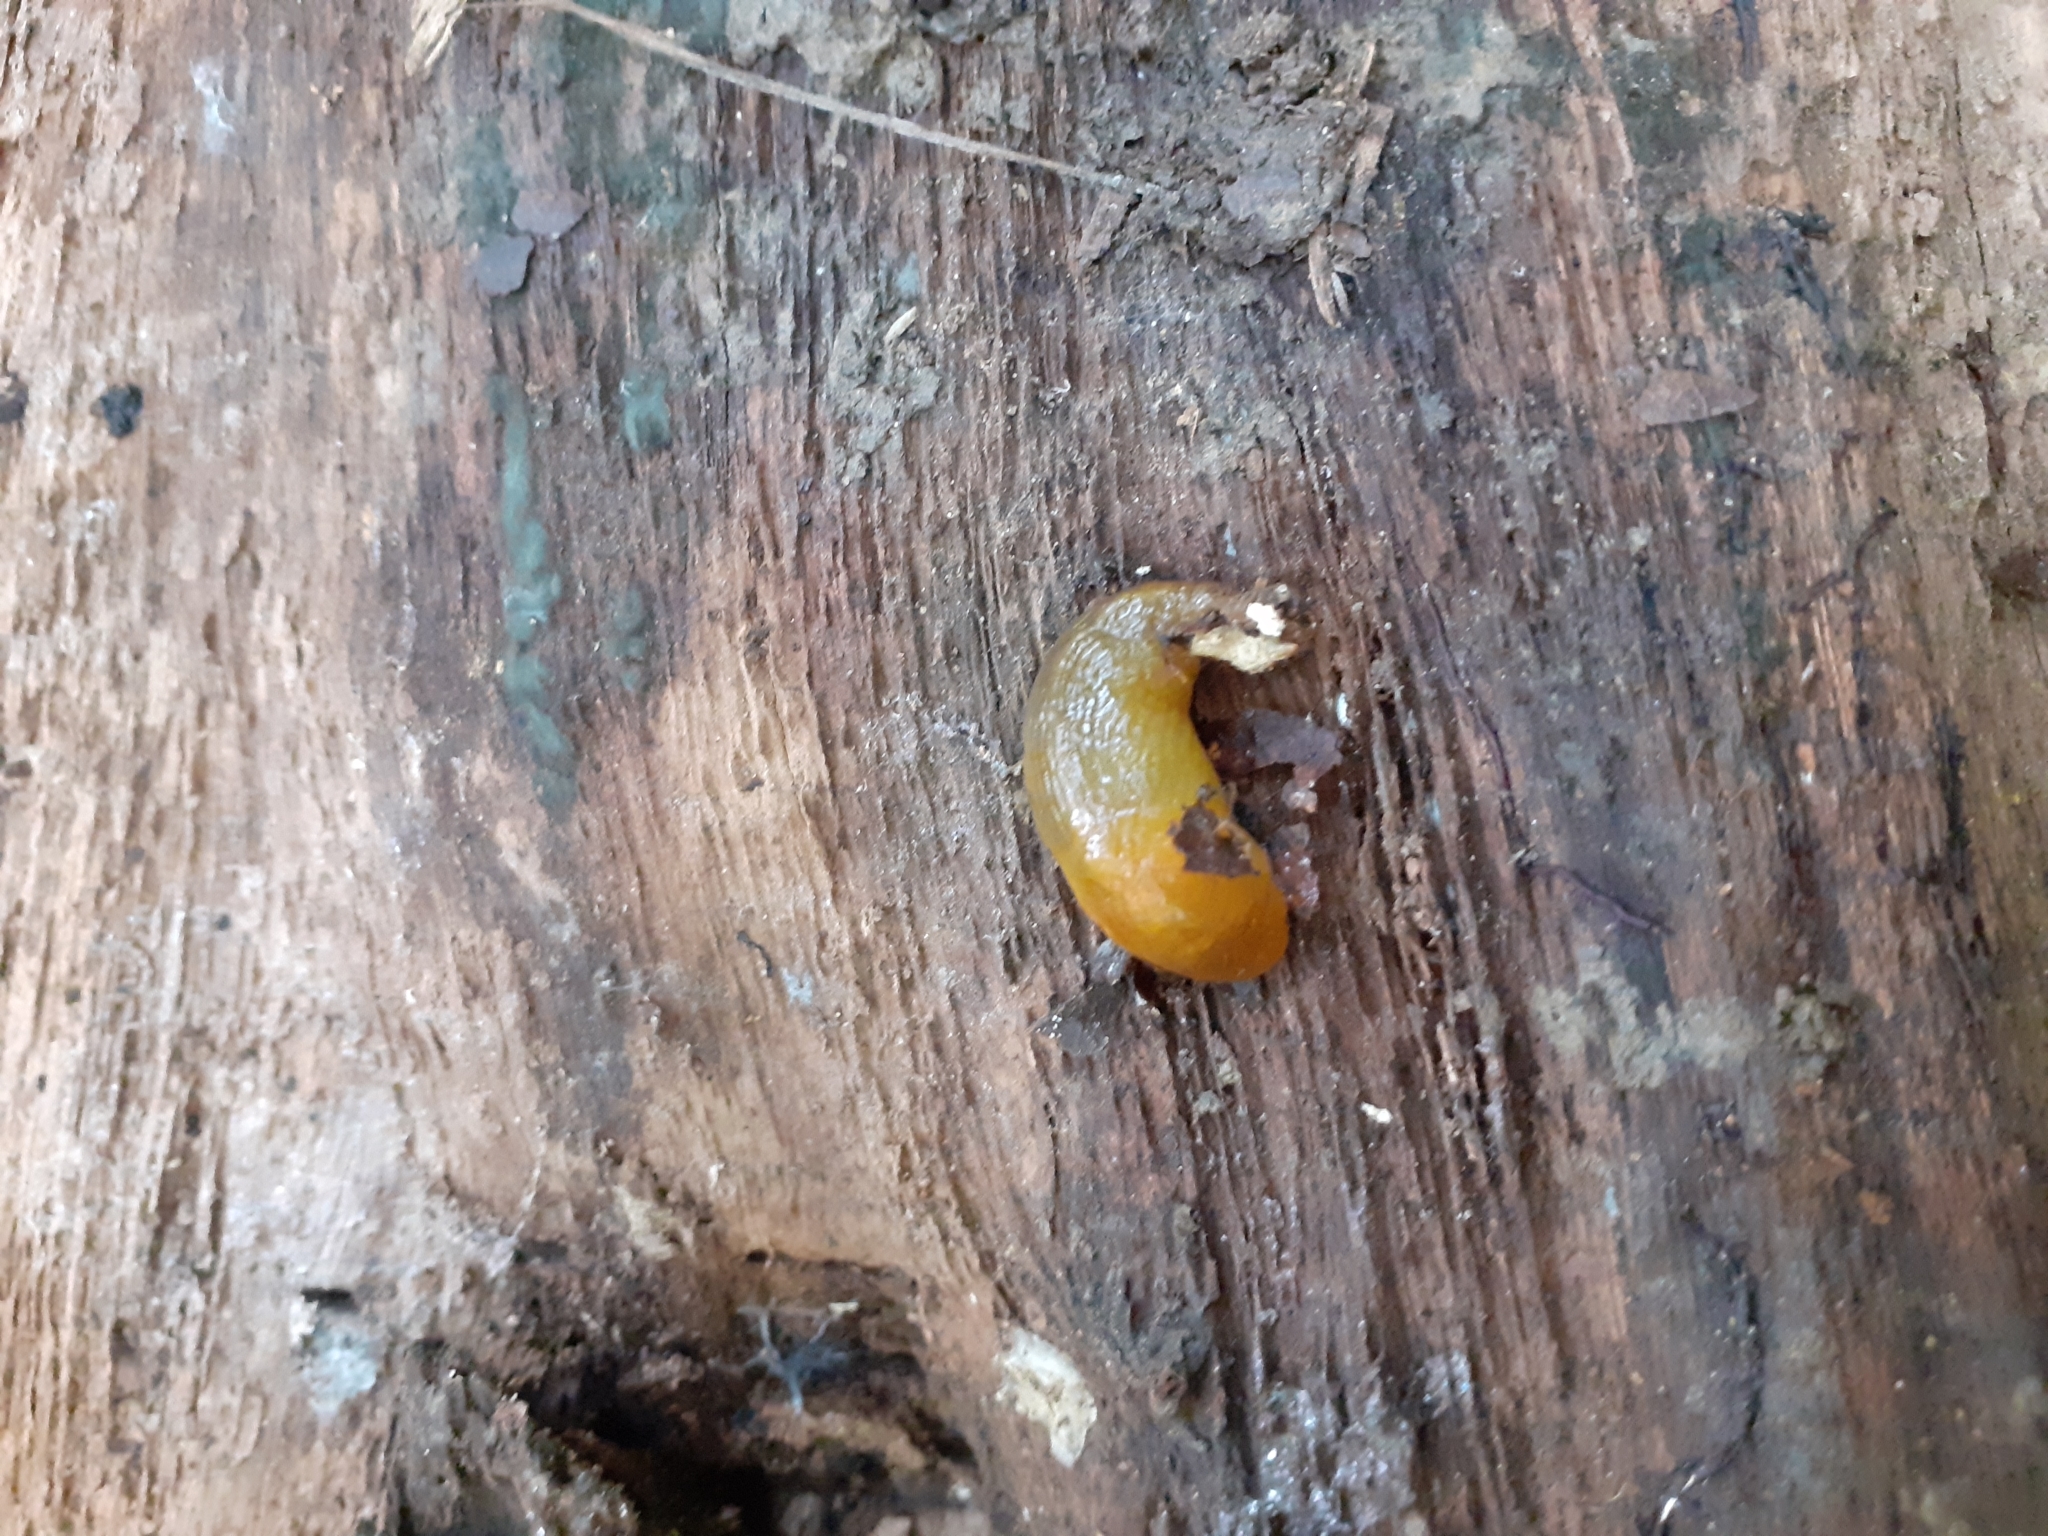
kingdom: Animalia
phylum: Mollusca
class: Gastropoda
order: Stylommatophora
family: Limacidae
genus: Malacolimax
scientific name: Malacolimax tenellus
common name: Lemon slug
